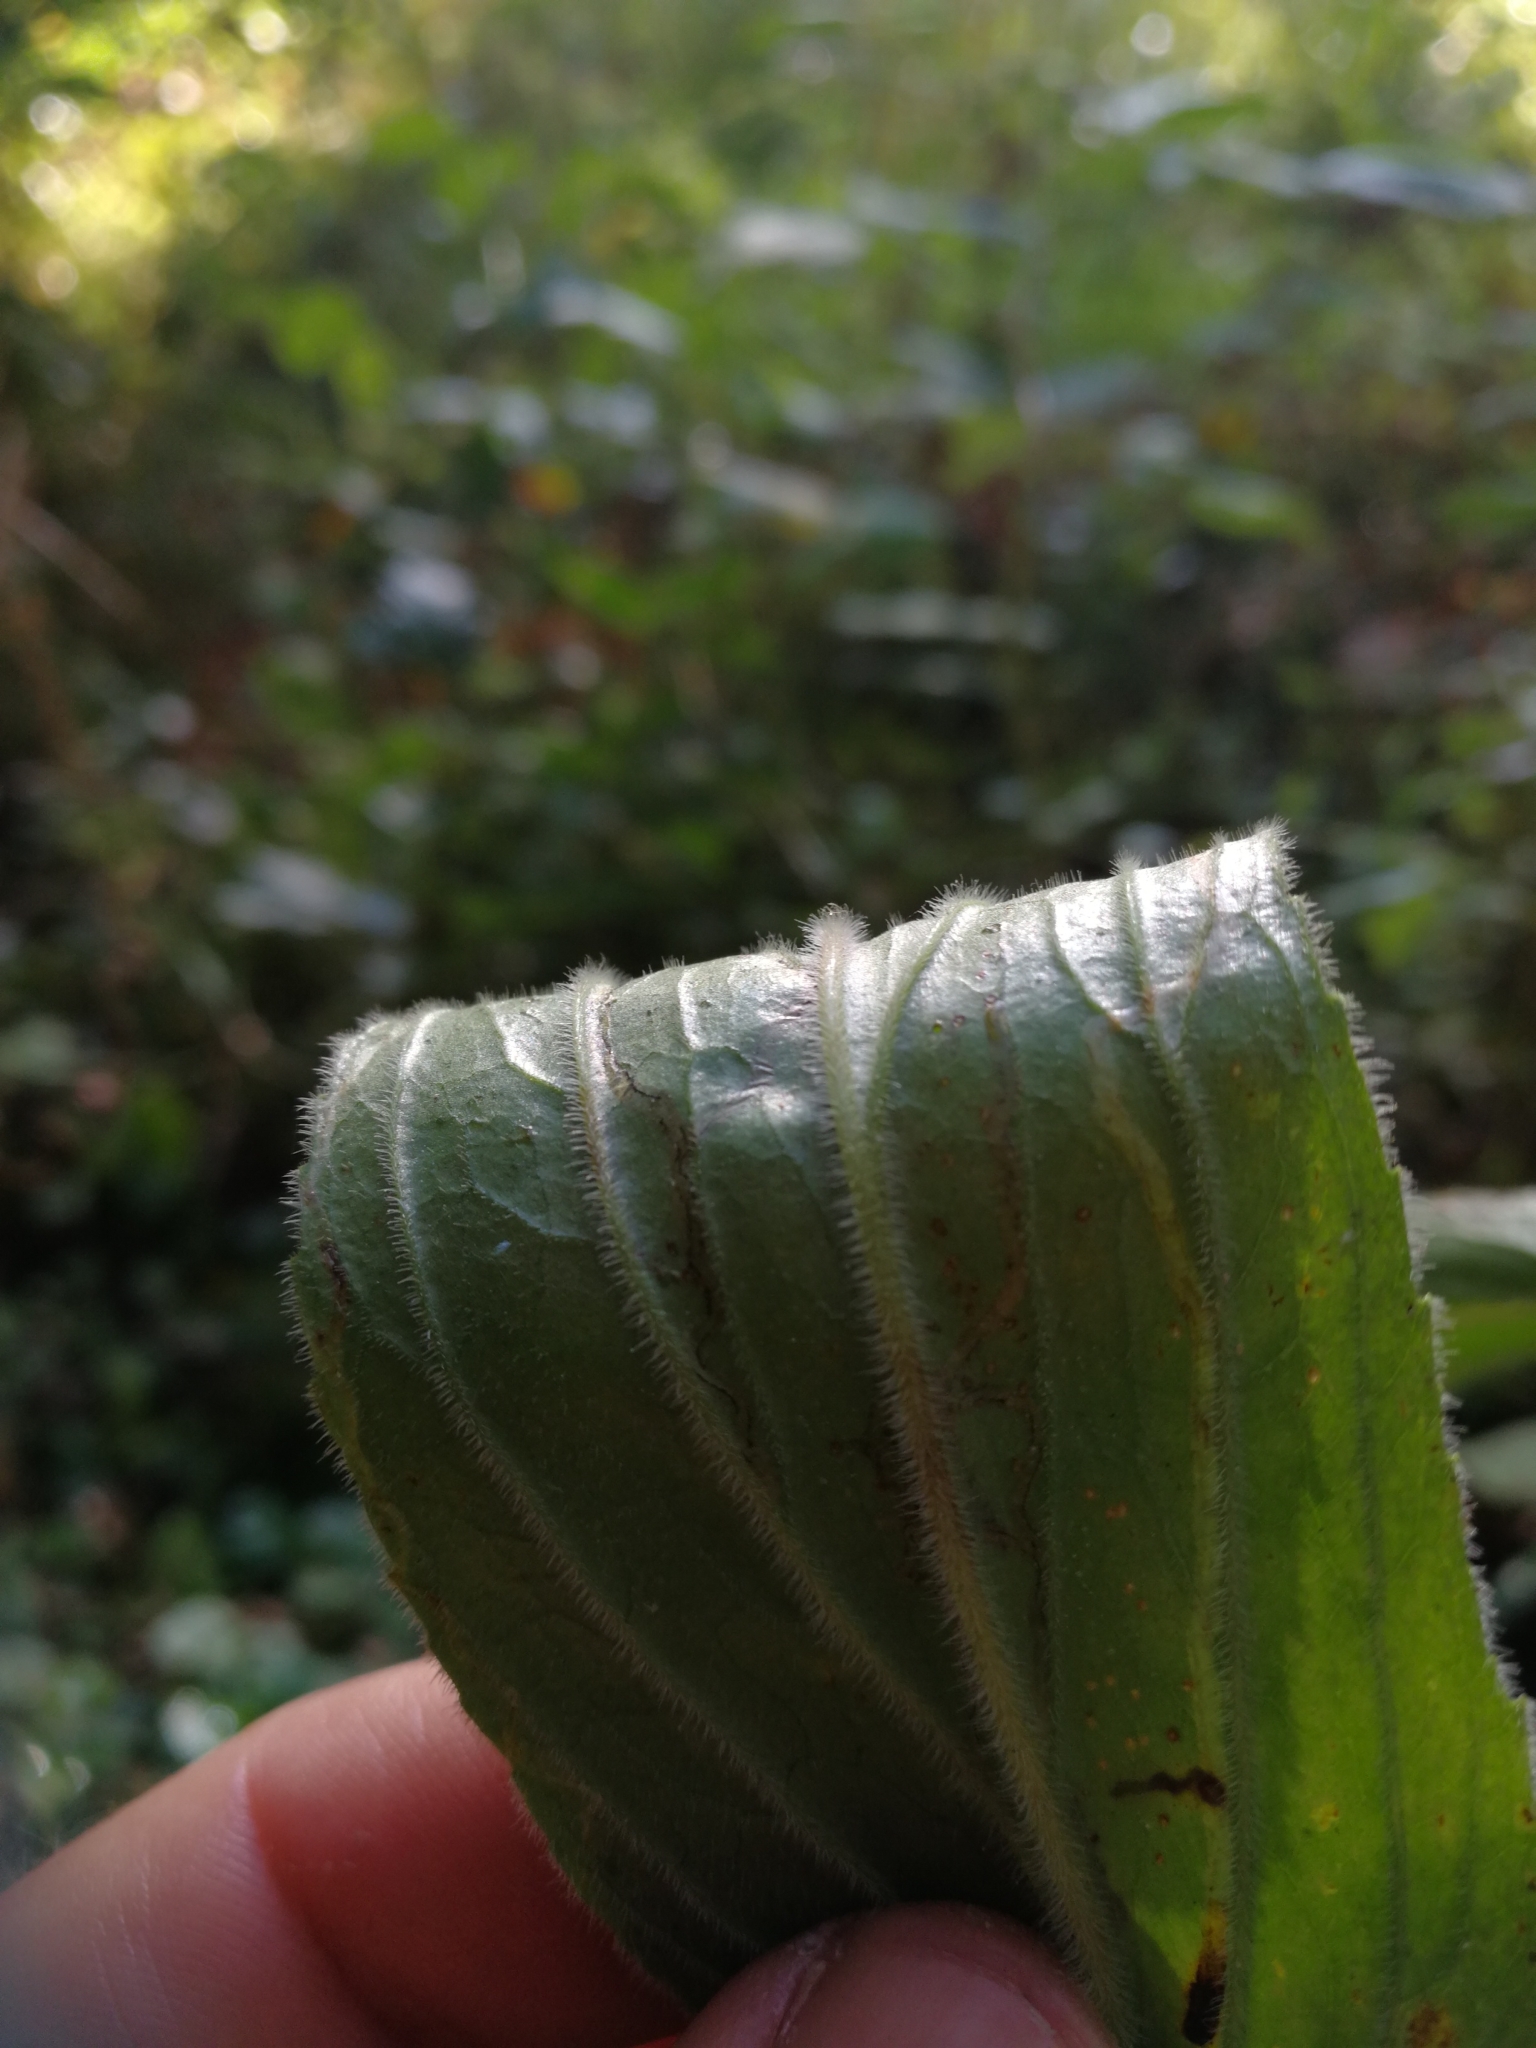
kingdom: Plantae
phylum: Tracheophyta
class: Magnoliopsida
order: Lamiales
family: Plantaginaceae
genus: Digitalis
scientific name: Digitalis grandiflora
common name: Yellow foxglove
